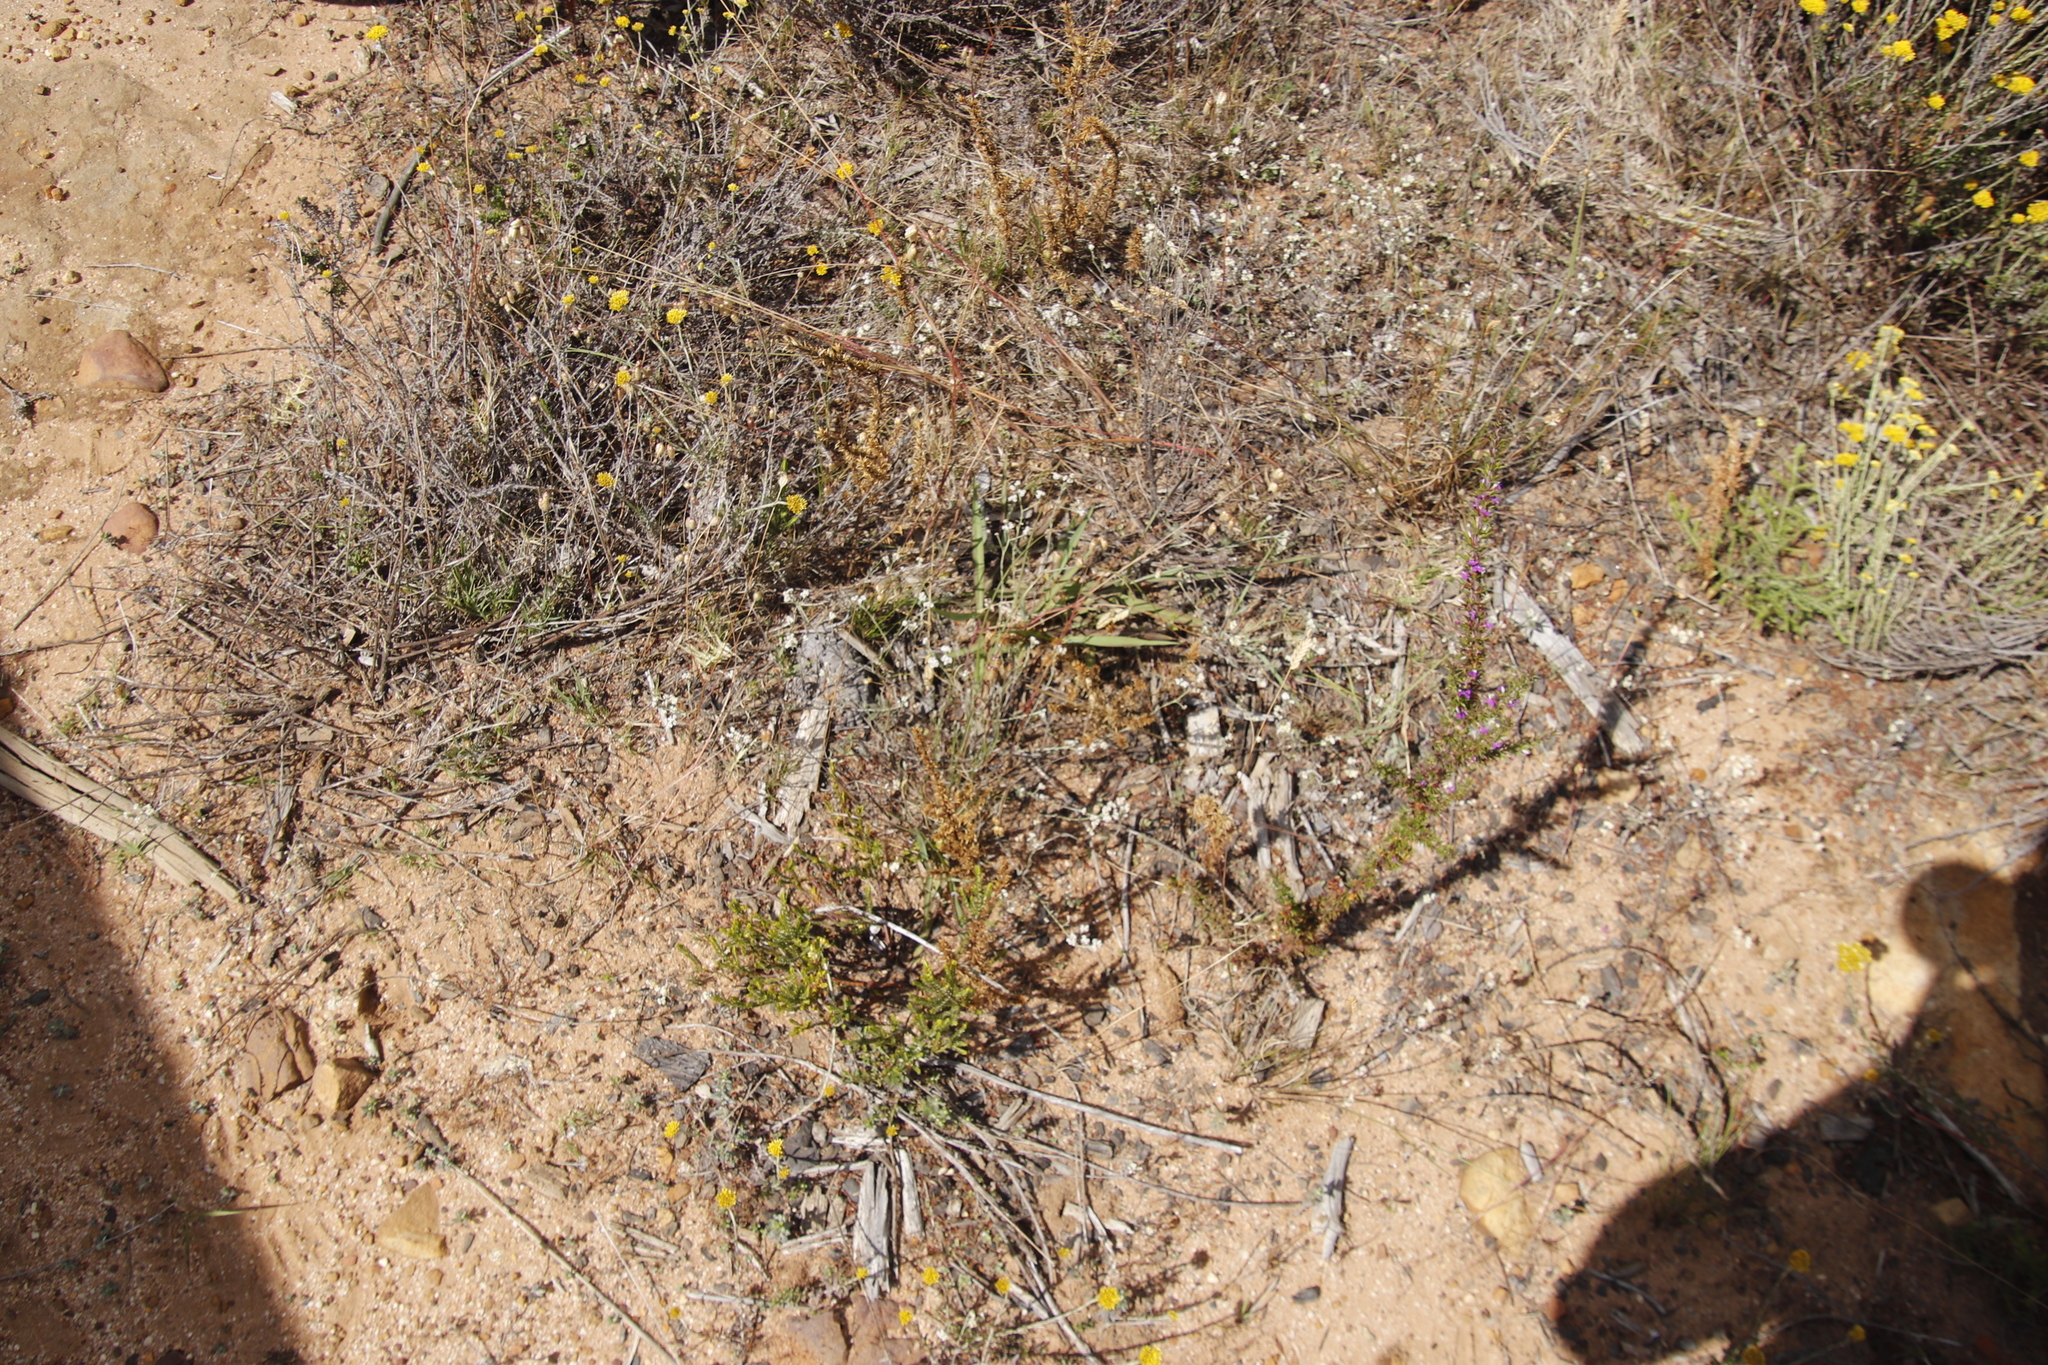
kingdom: Plantae
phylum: Tracheophyta
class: Magnoliopsida
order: Asterales
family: Asteraceae
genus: Helichrysum
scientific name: Helichrysum indicum
